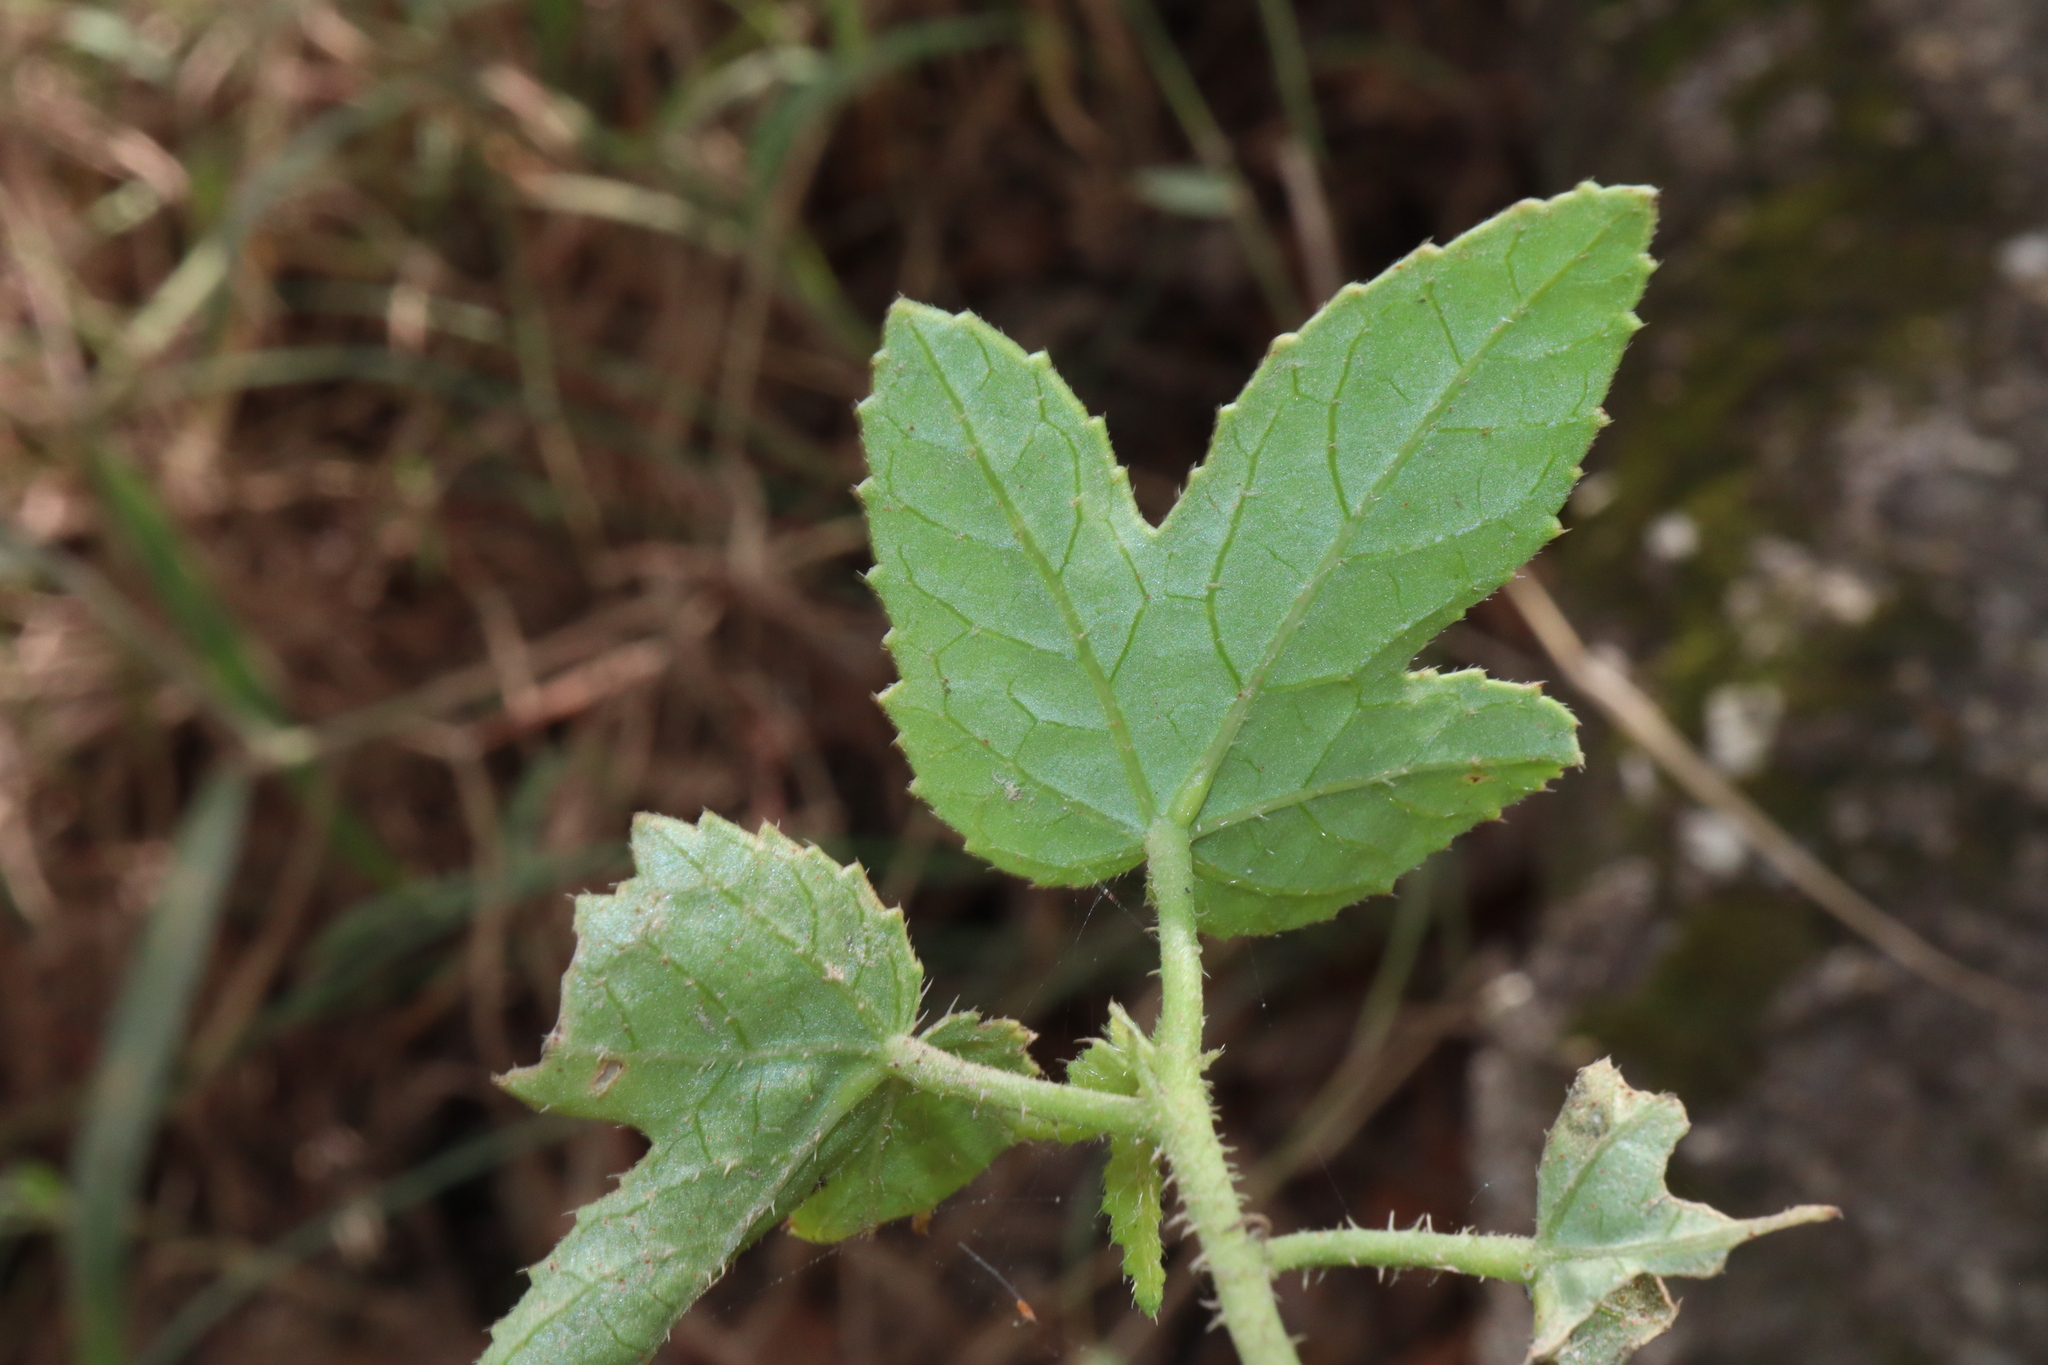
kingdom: Plantae
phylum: Tracheophyta
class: Magnoliopsida
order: Malvales
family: Malvaceae
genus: Hibiscus
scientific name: Hibiscus meraukensis
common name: Bush hibiscus
